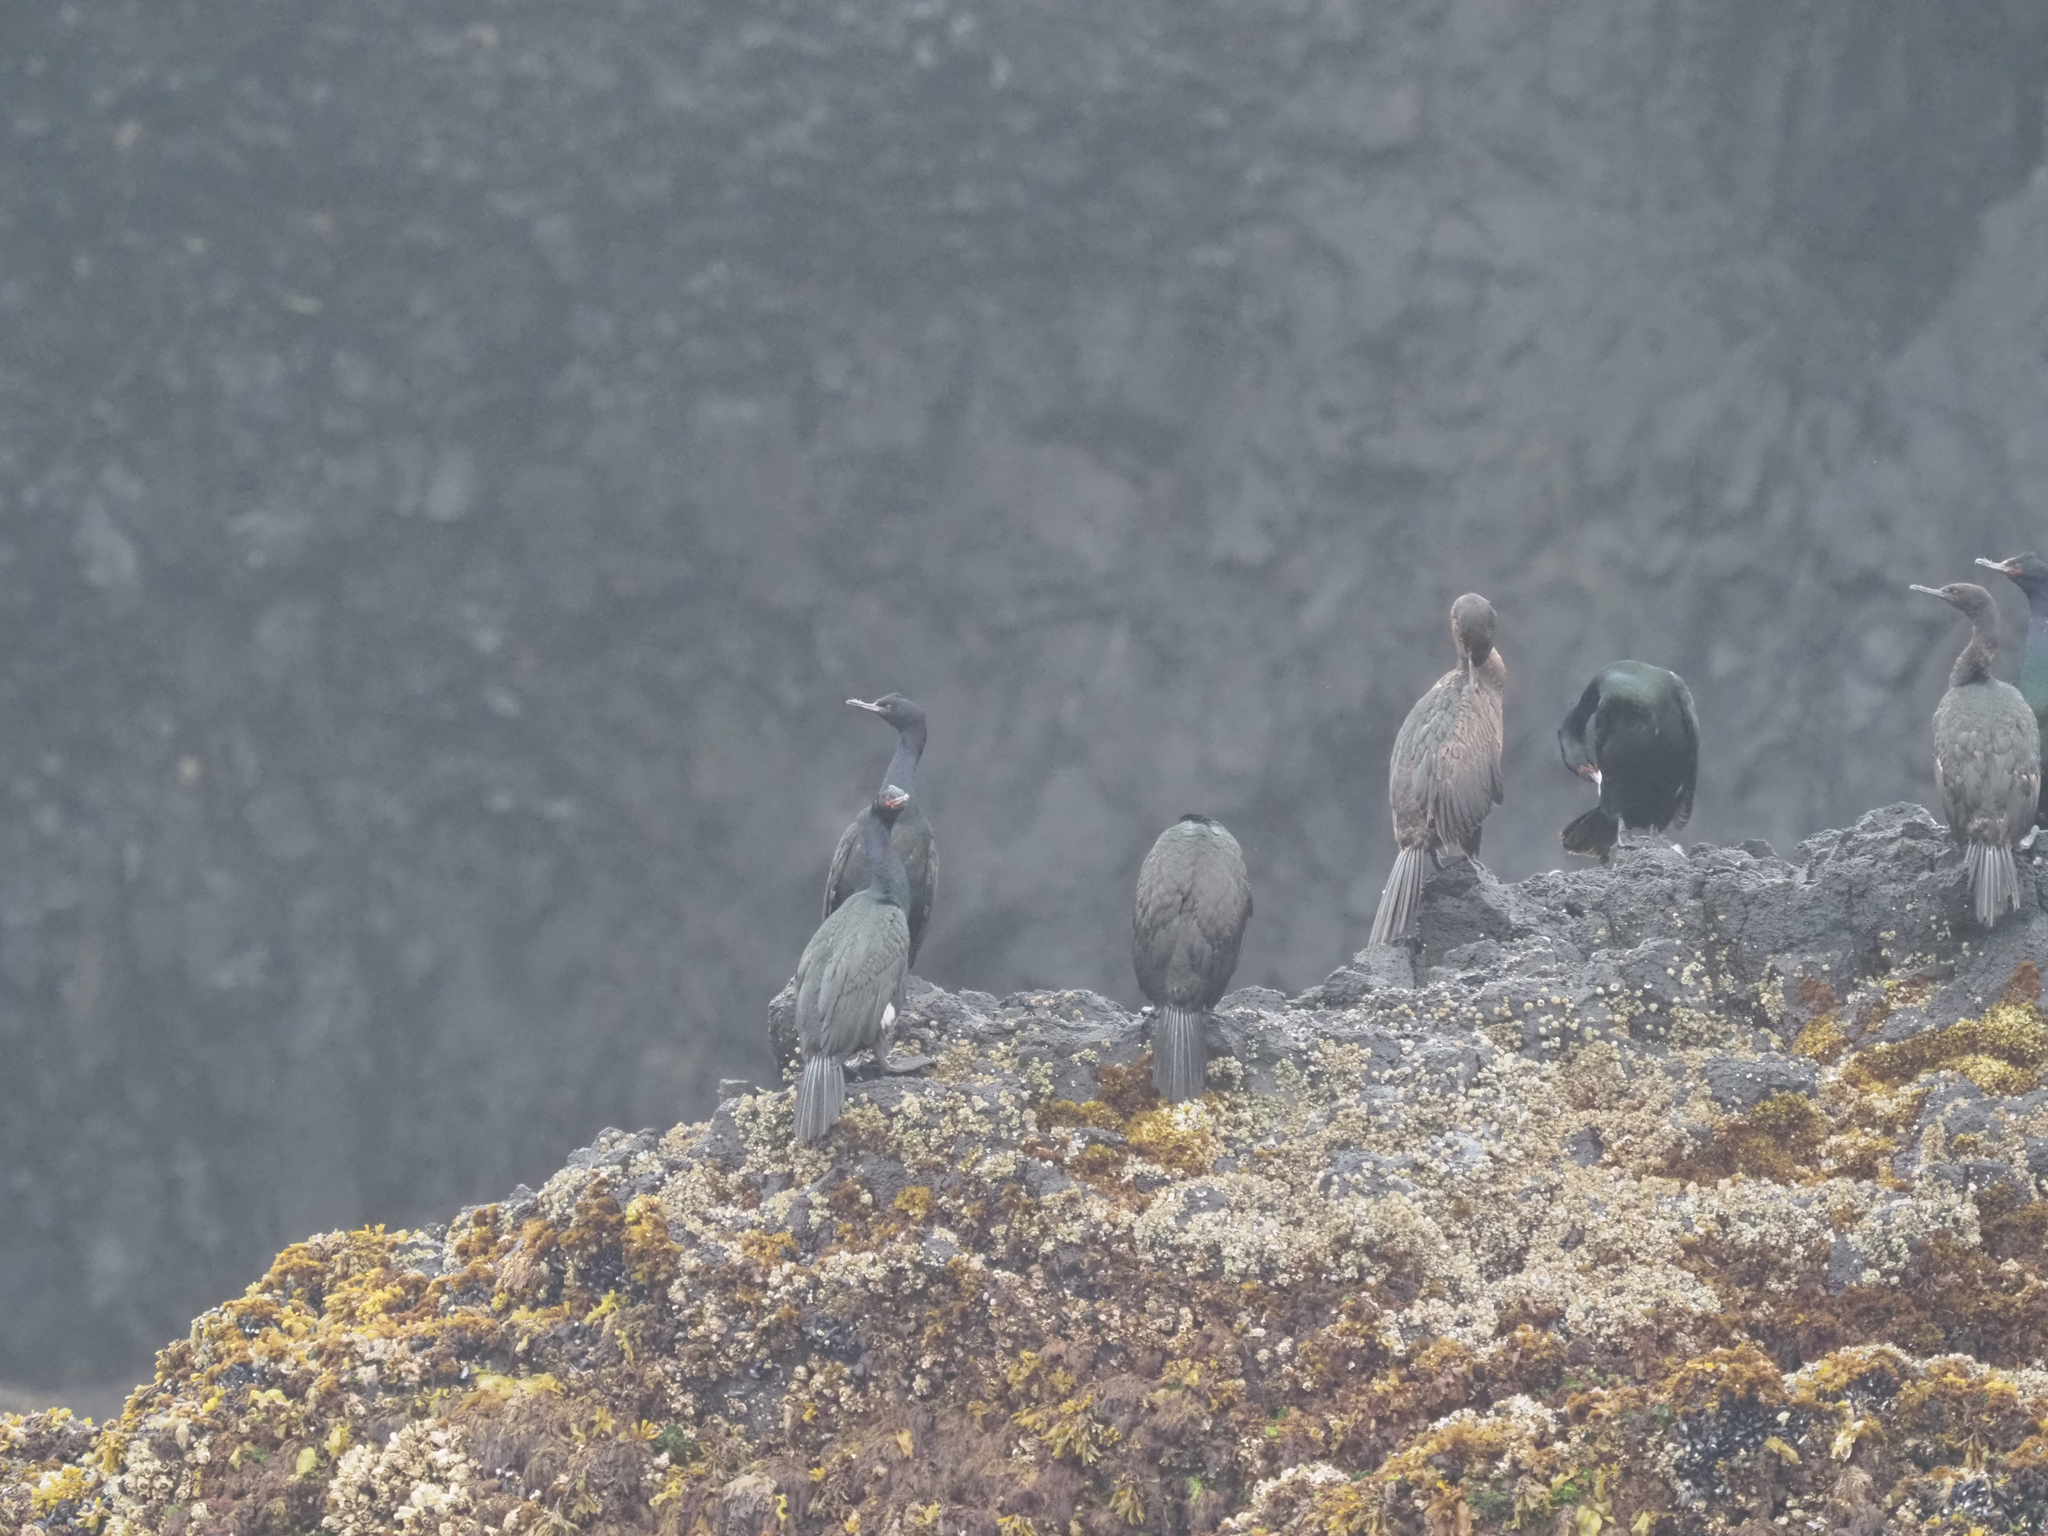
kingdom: Animalia
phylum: Chordata
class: Aves
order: Suliformes
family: Phalacrocoracidae
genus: Phalacrocorax
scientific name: Phalacrocorax pelagicus
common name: Pelagic cormorant
